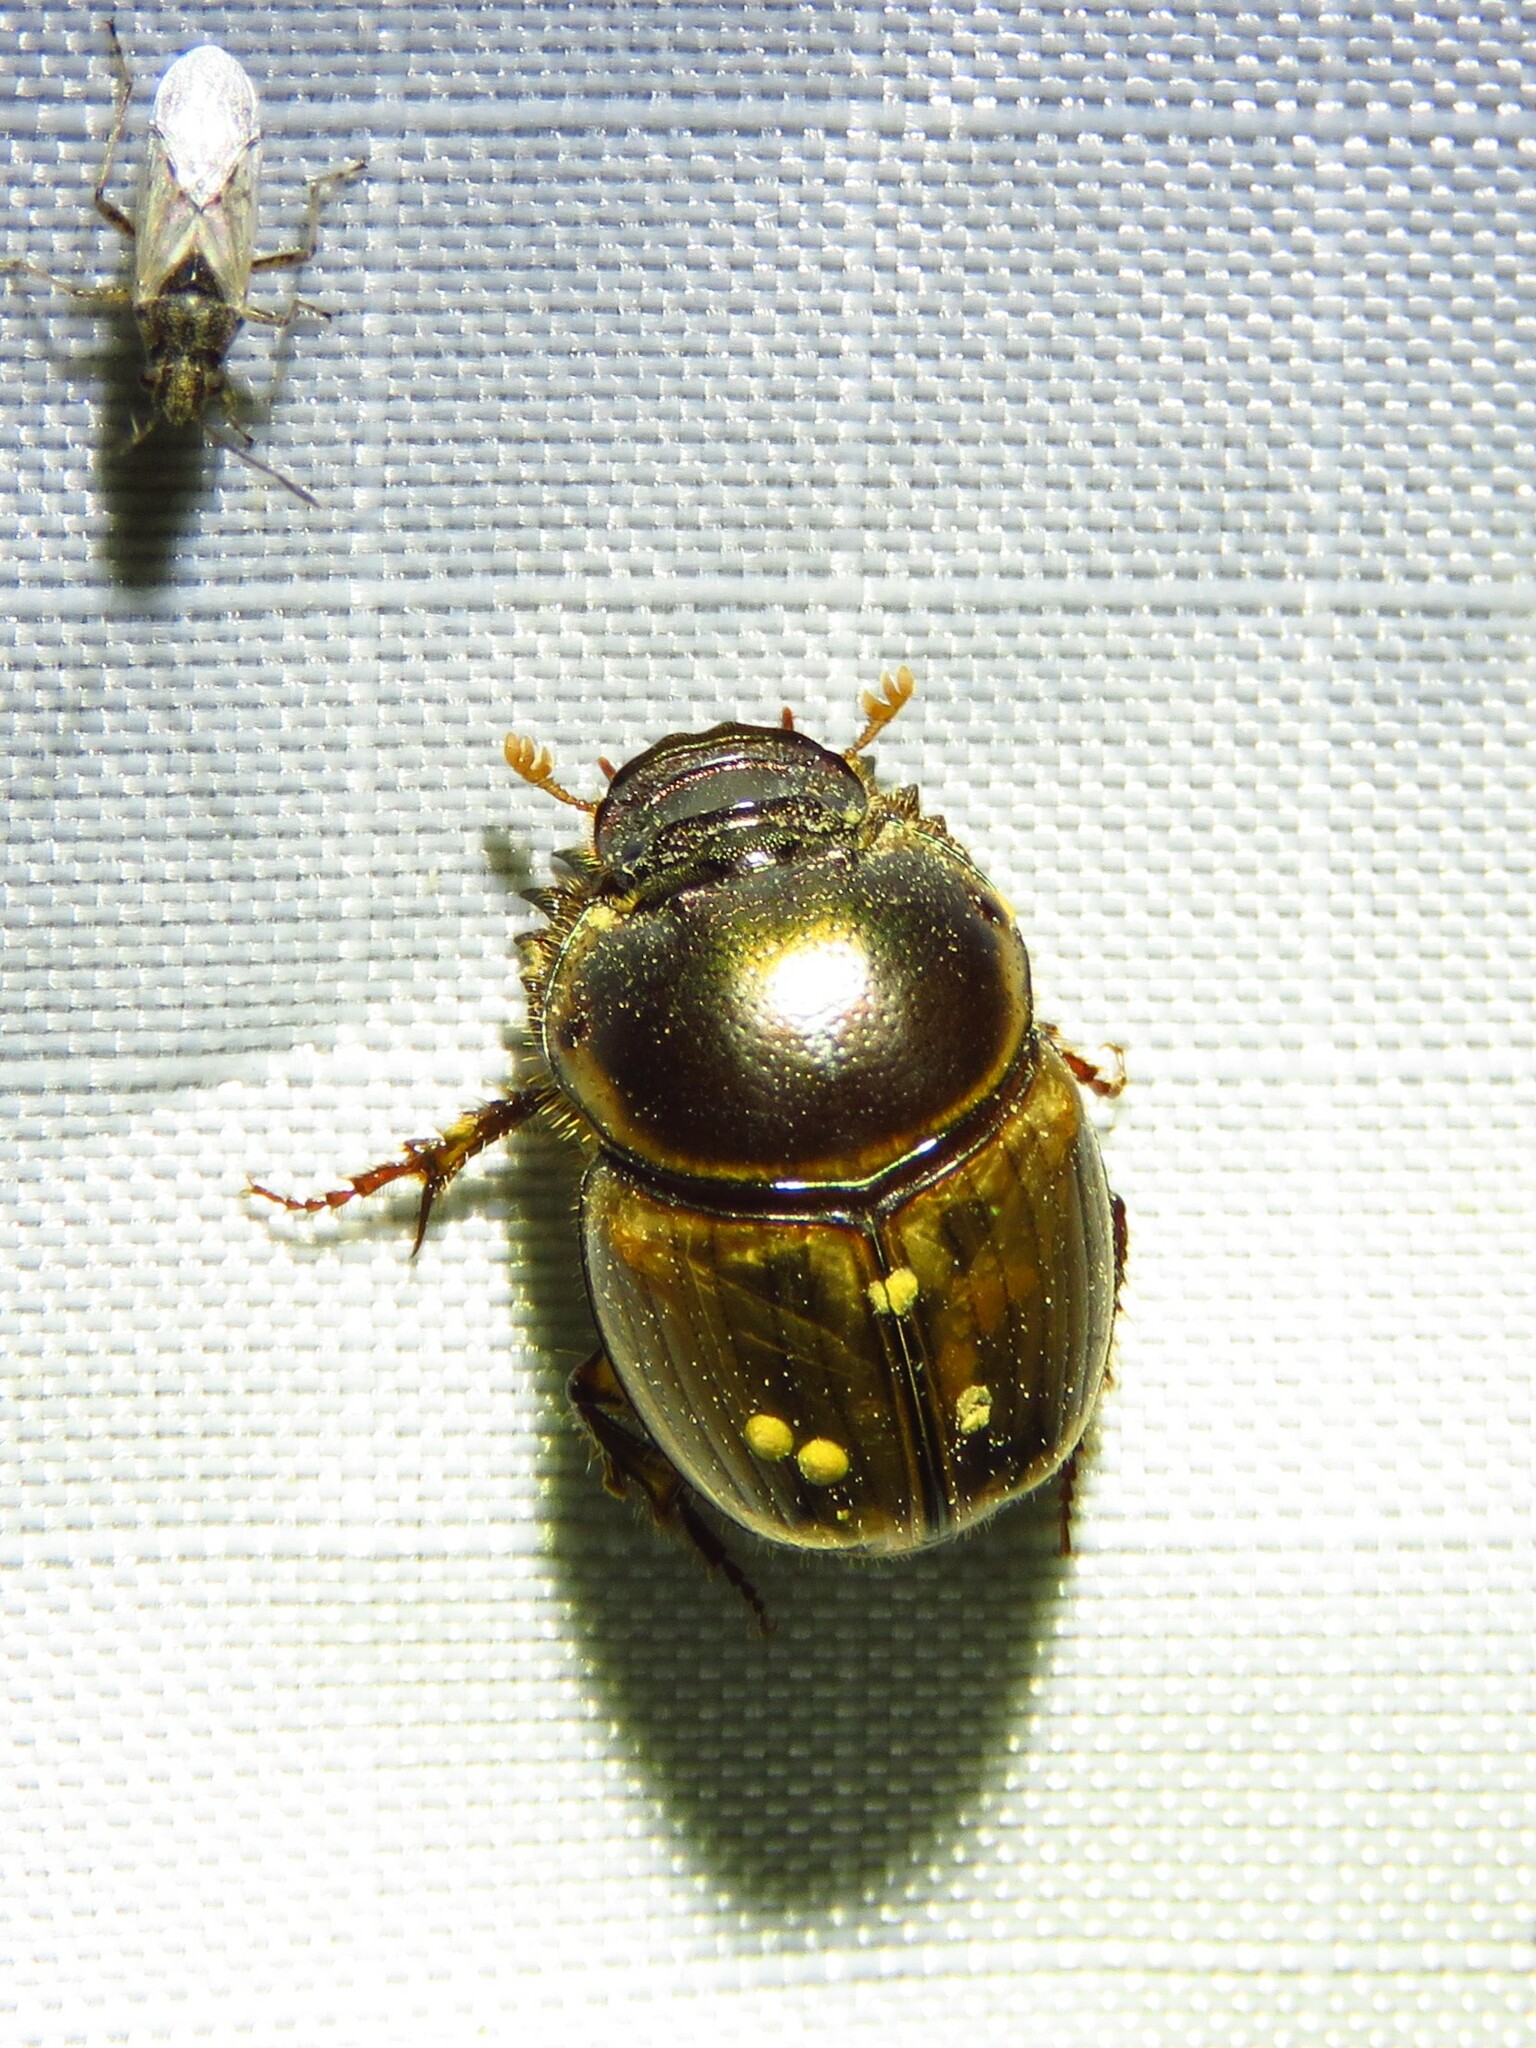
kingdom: Animalia
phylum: Arthropoda
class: Insecta
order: Coleoptera
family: Scarabaeidae
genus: Digitonthophagus
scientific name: Digitonthophagus gazella
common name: Brown dung beetle
